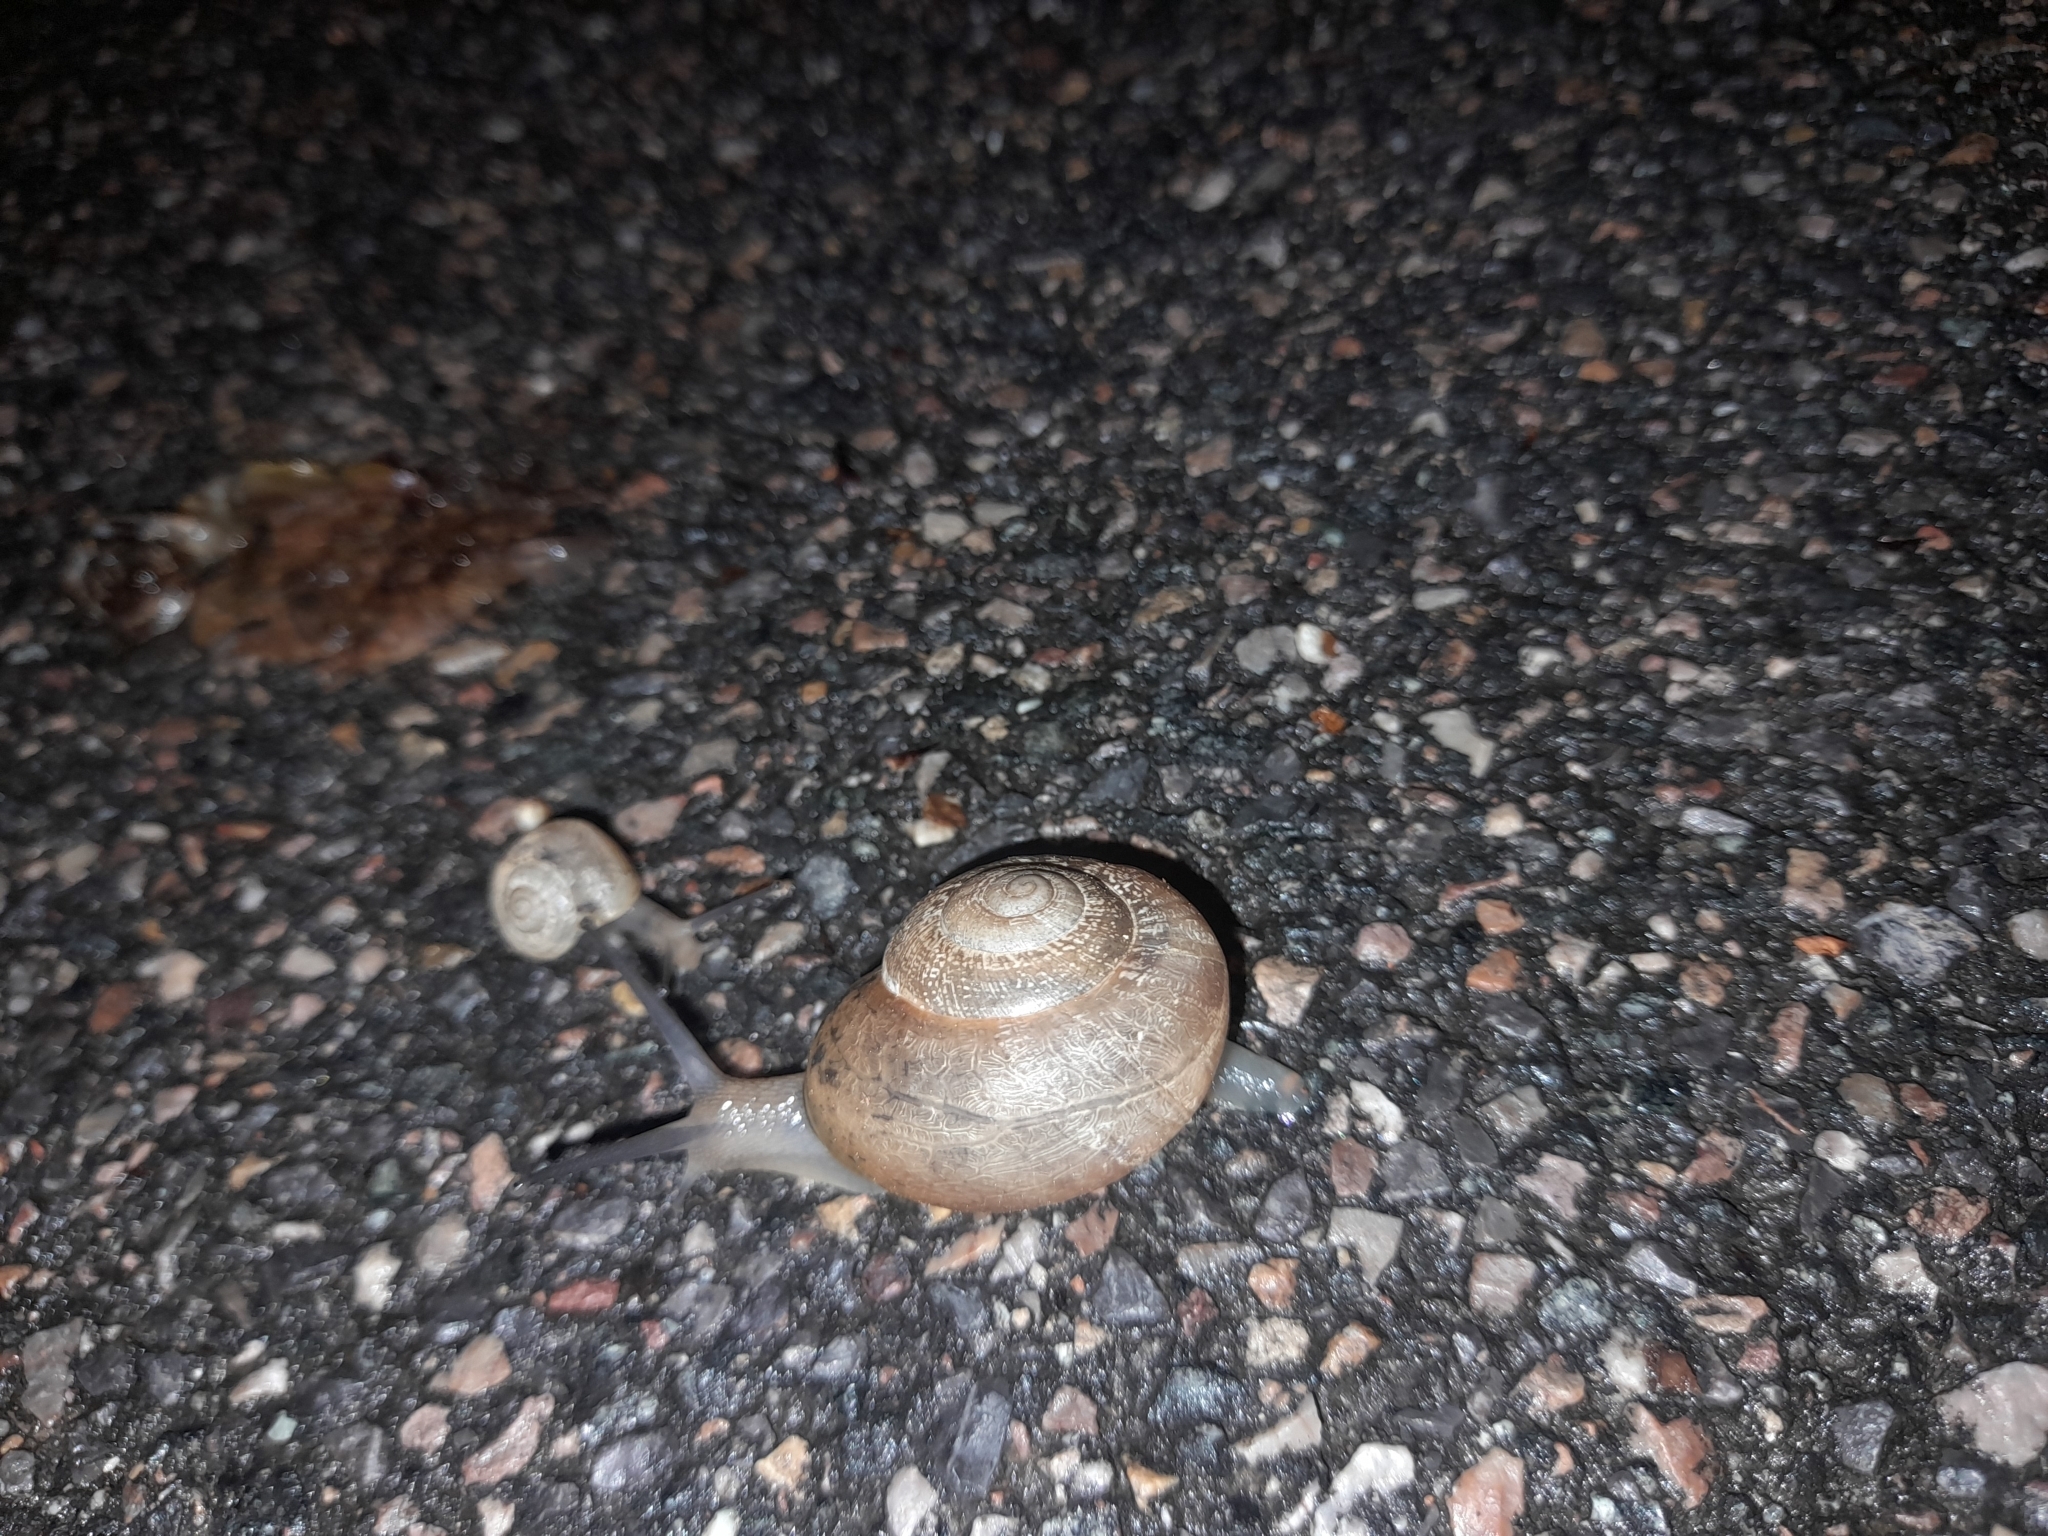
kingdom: Animalia
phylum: Mollusca
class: Gastropoda
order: Stylommatophora
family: Helicidae
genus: Eobania
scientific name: Eobania vermiculata
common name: Chocolateband snail
